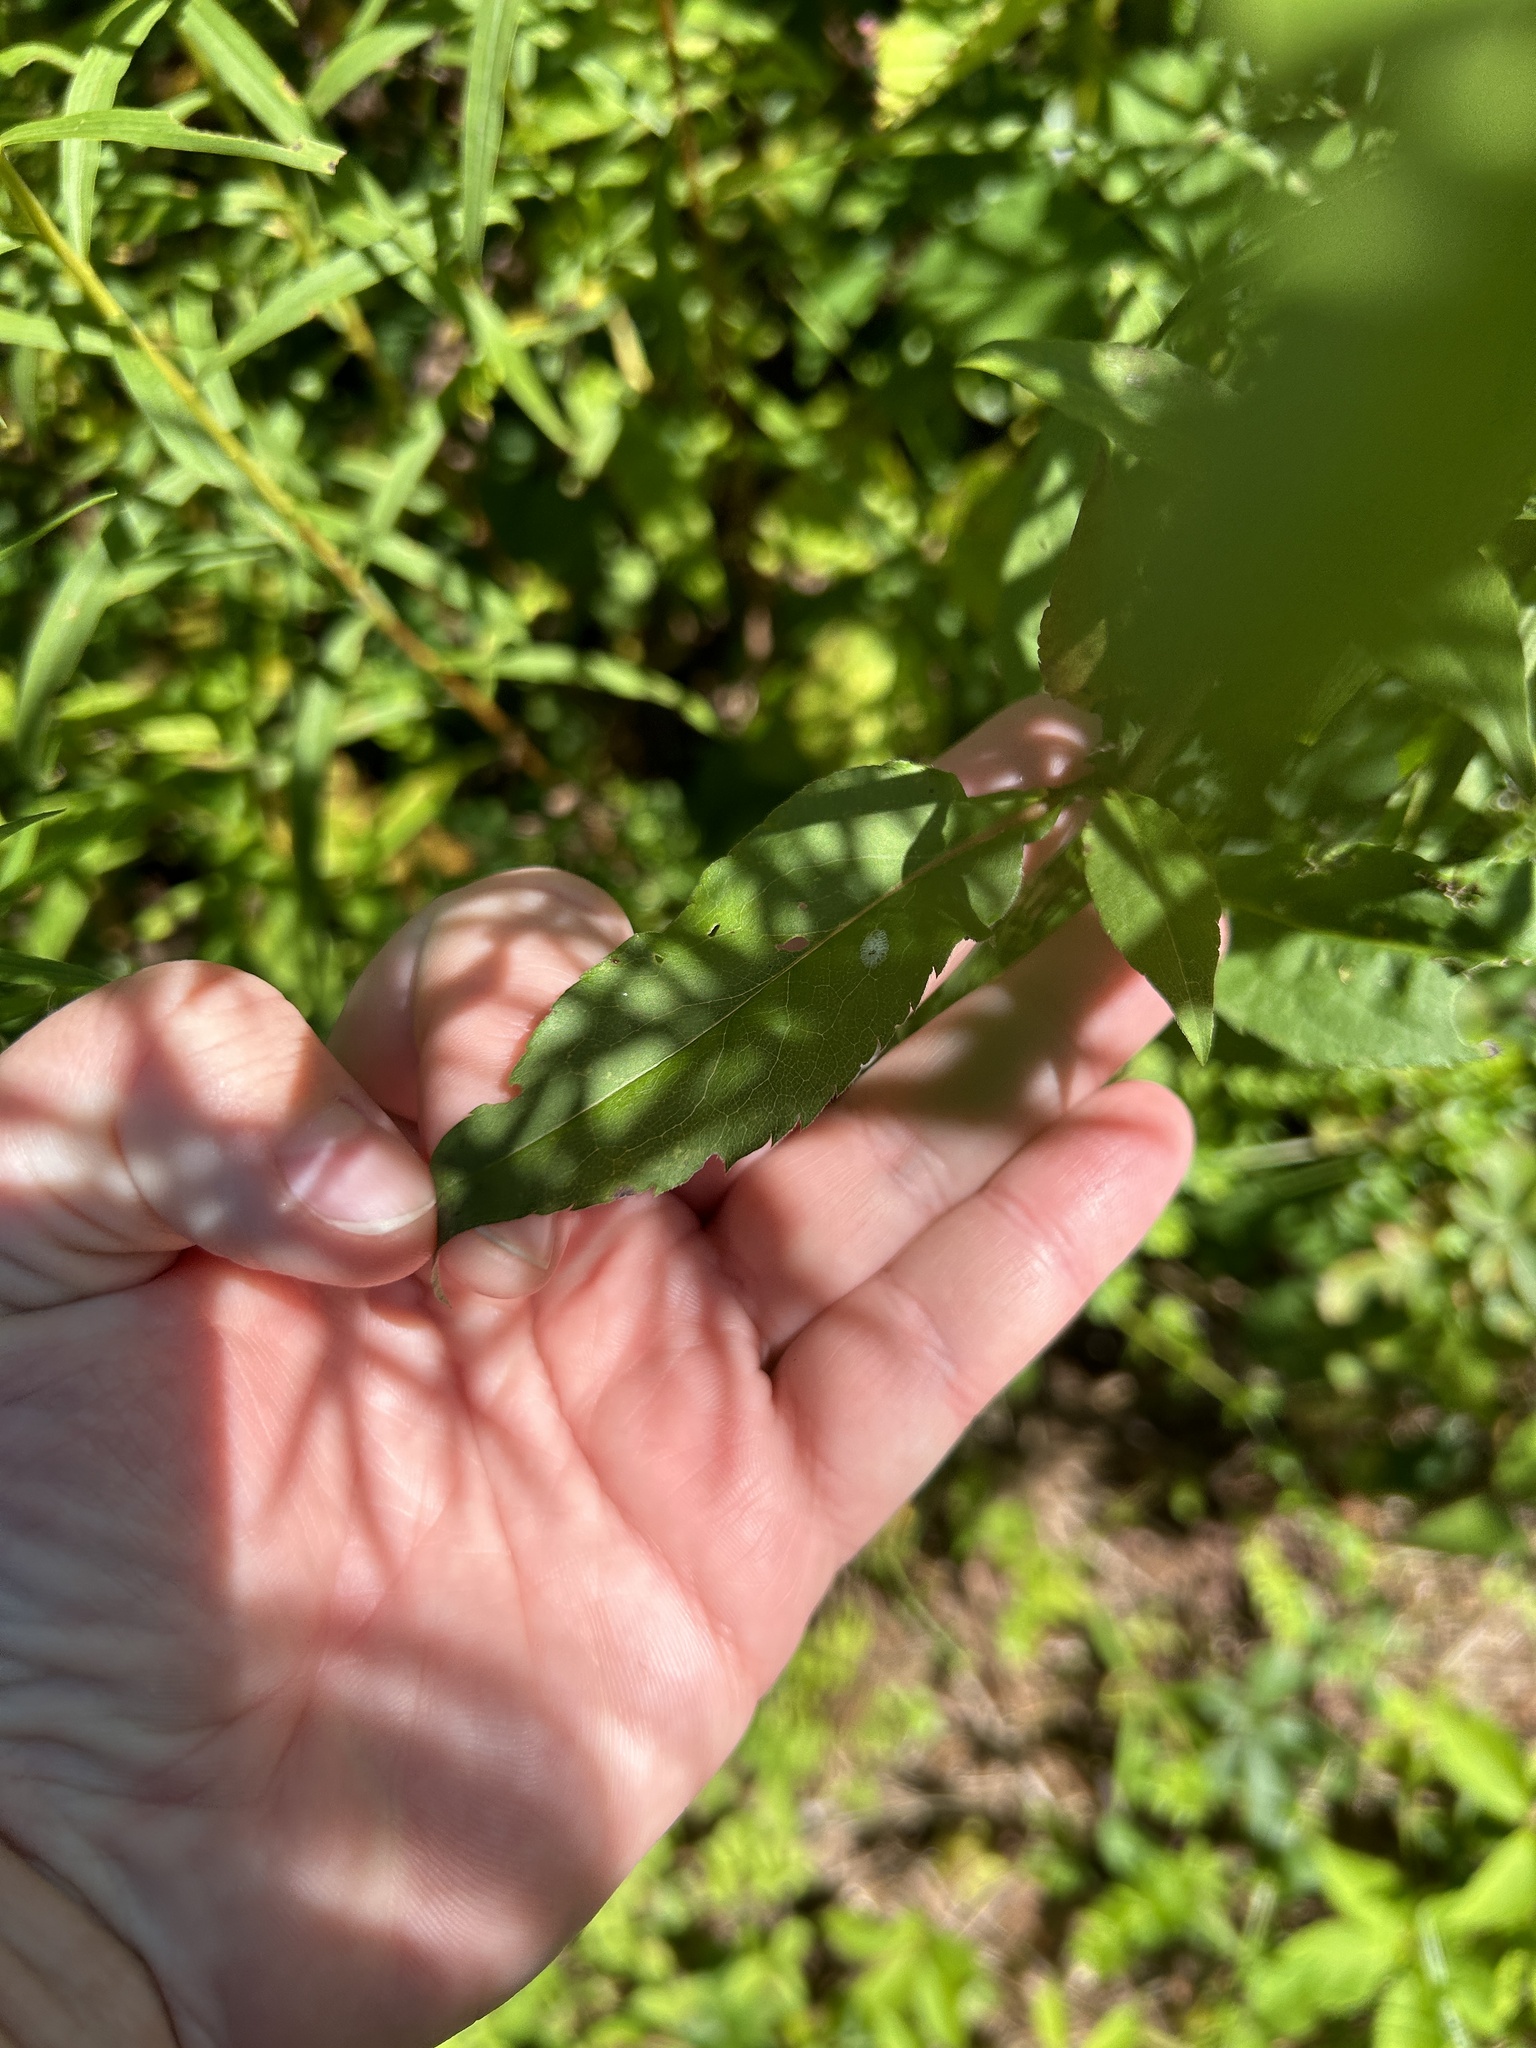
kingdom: Plantae
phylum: Tracheophyta
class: Magnoliopsida
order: Asterales
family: Asteraceae
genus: Symphyotrichum
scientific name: Symphyotrichum urophyllum
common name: Arrow-leaved aster
